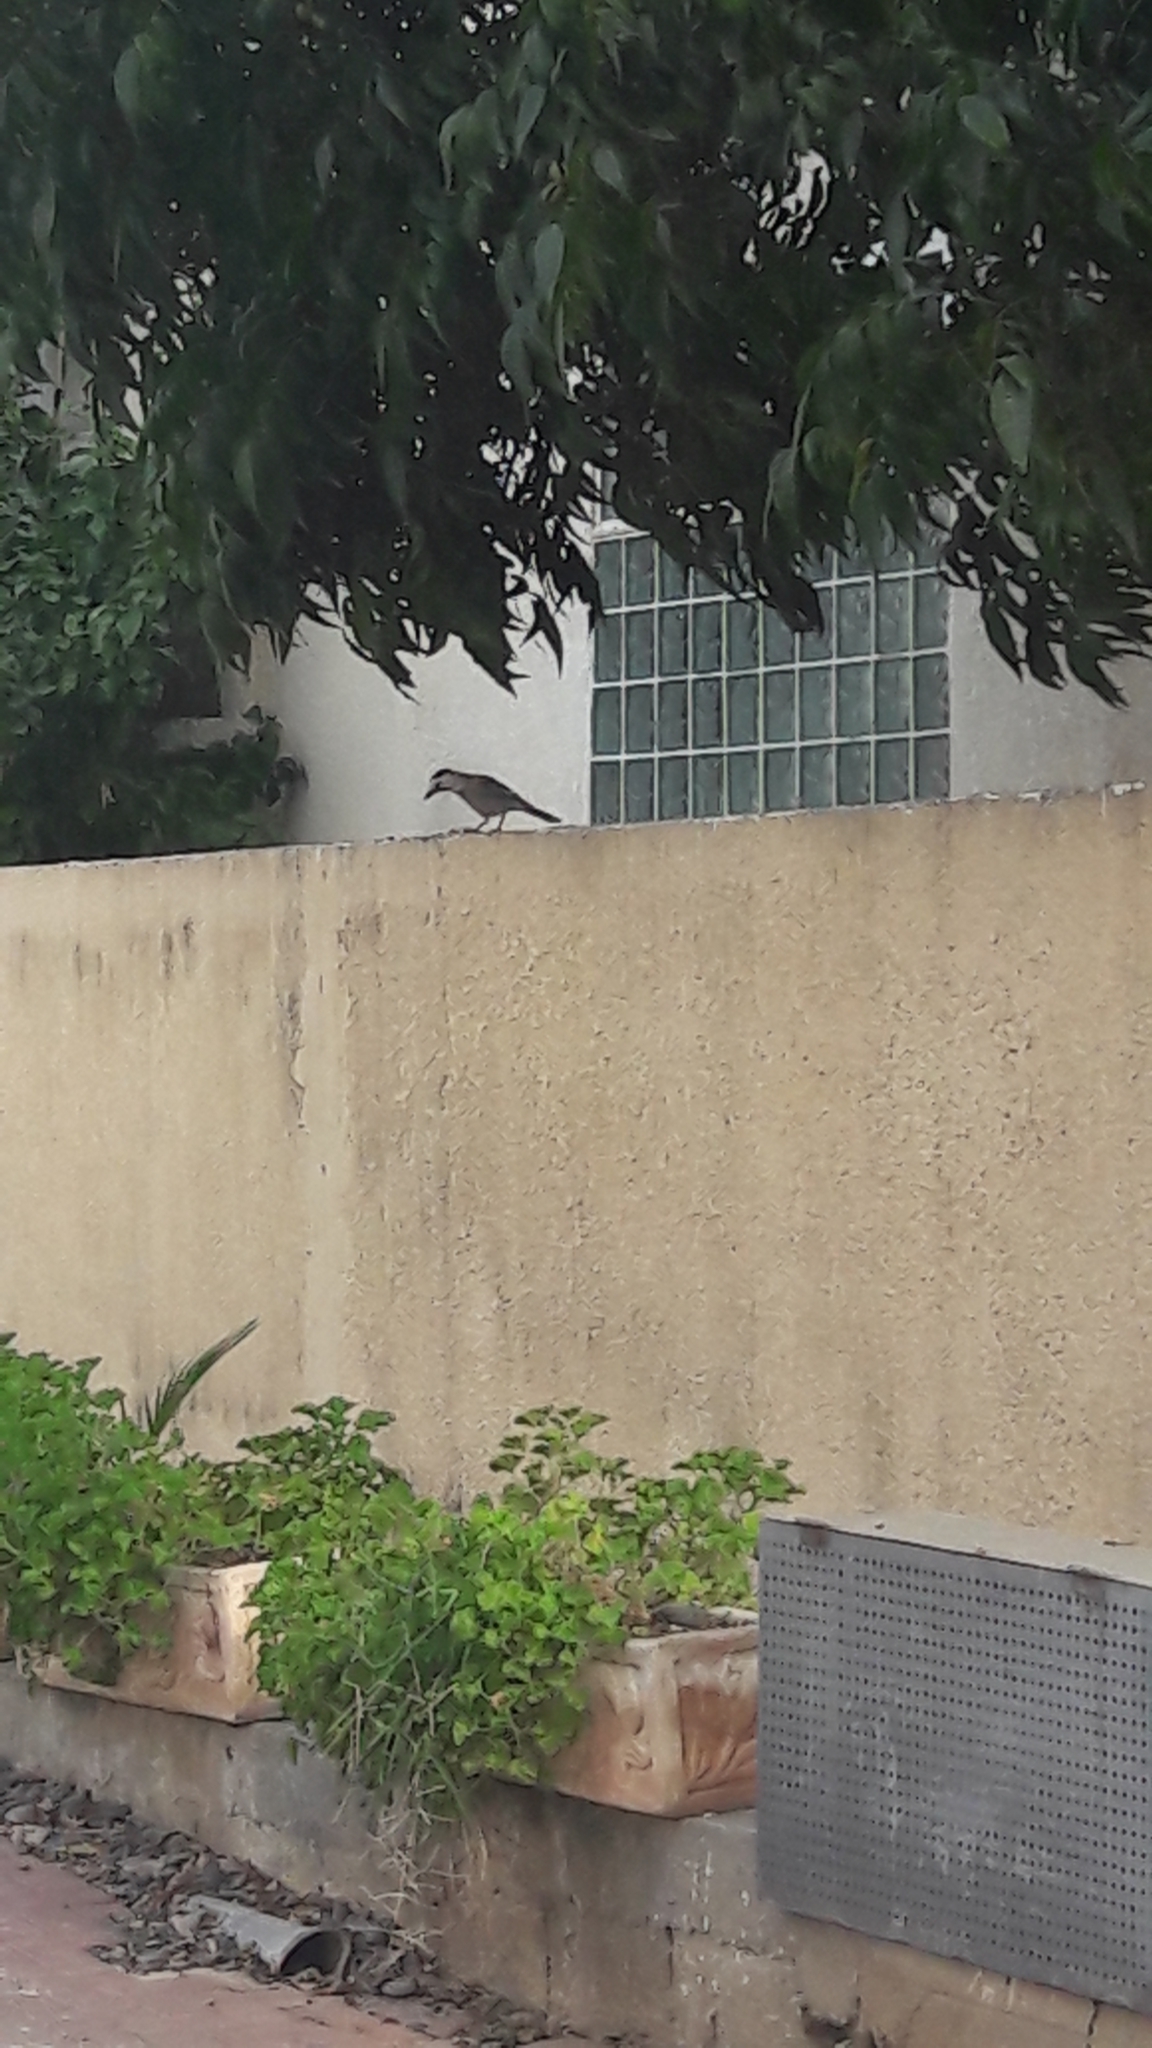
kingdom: Animalia
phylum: Chordata
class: Aves
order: Passeriformes
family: Corvidae
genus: Garrulus
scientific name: Garrulus glandarius
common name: Eurasian jay
